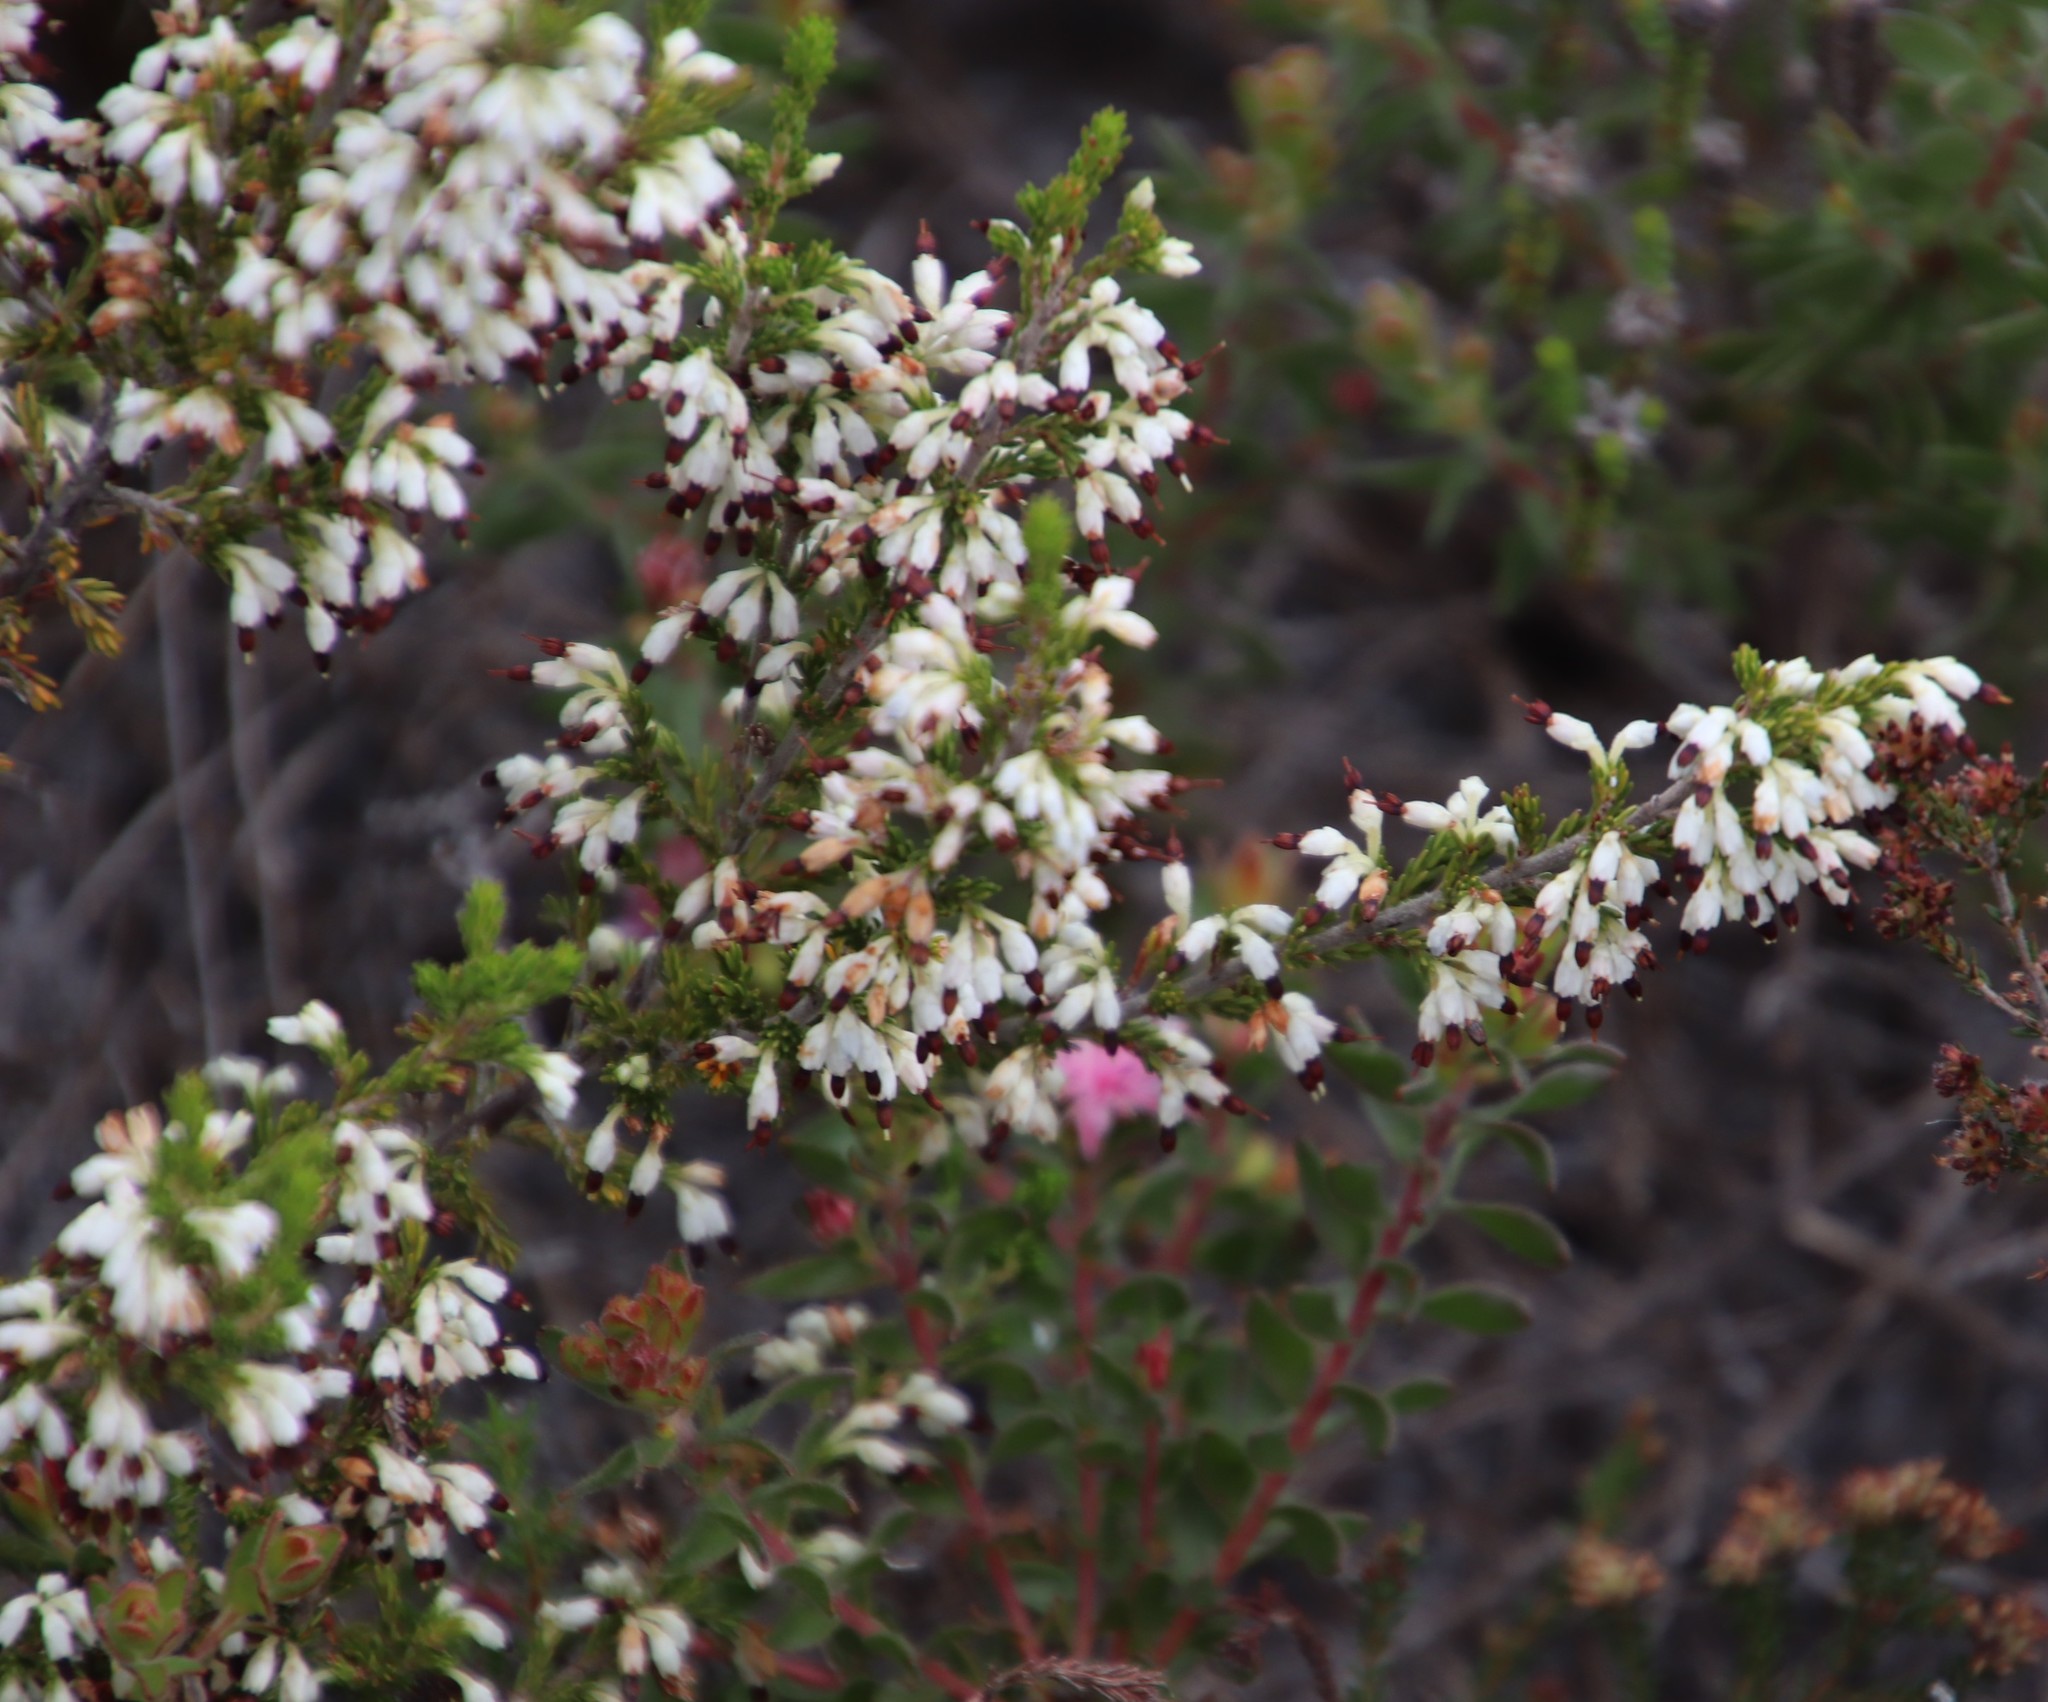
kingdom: Plantae
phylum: Tracheophyta
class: Magnoliopsida
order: Ericales
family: Ericaceae
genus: Erica
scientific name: Erica imbricata
